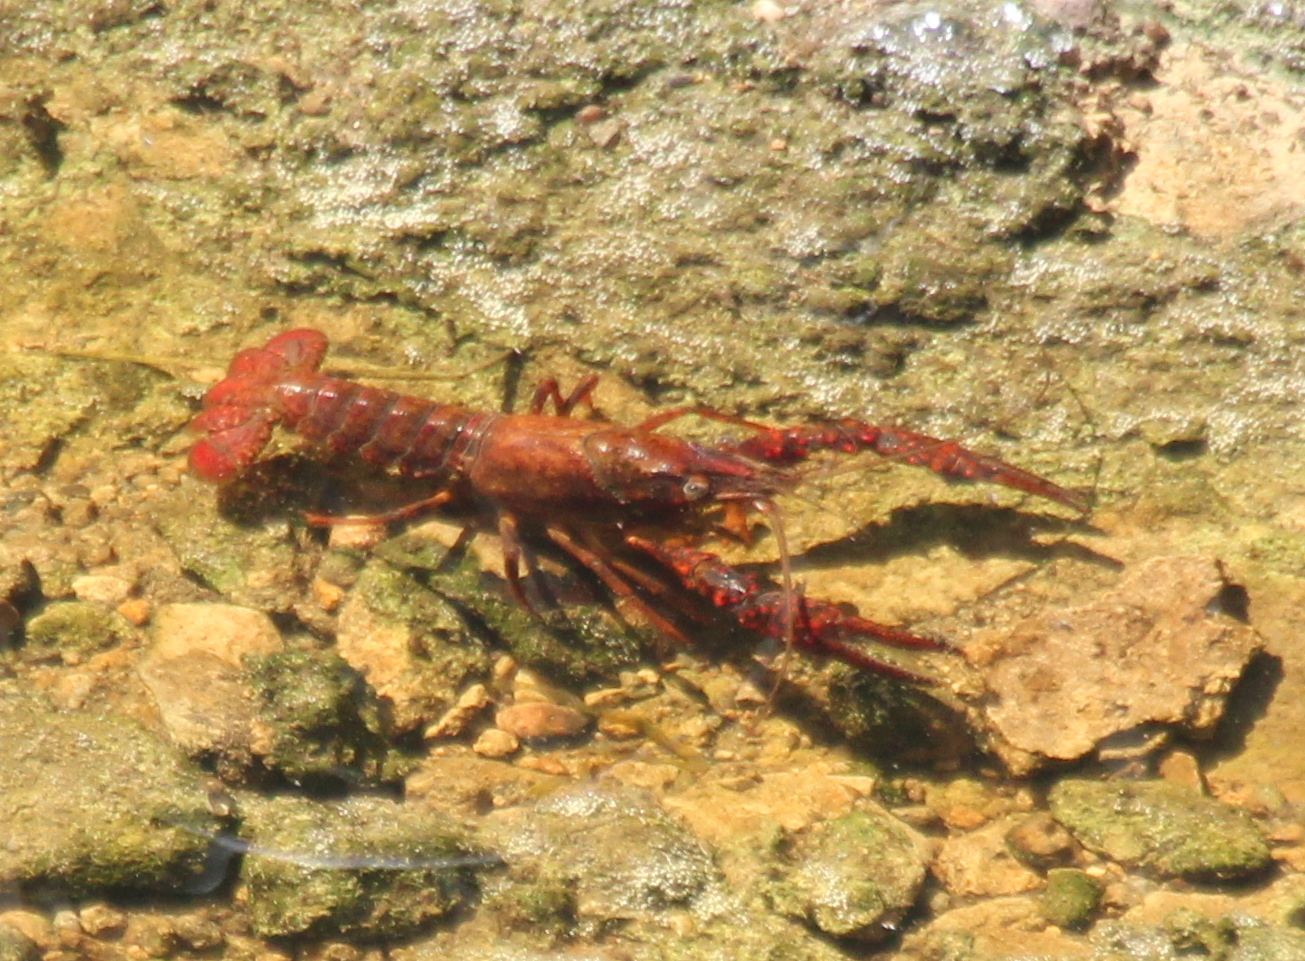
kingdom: Animalia
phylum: Arthropoda
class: Malacostraca
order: Decapoda
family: Cambaridae
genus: Procambarus
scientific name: Procambarus clarkii
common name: Red swamp crayfish
